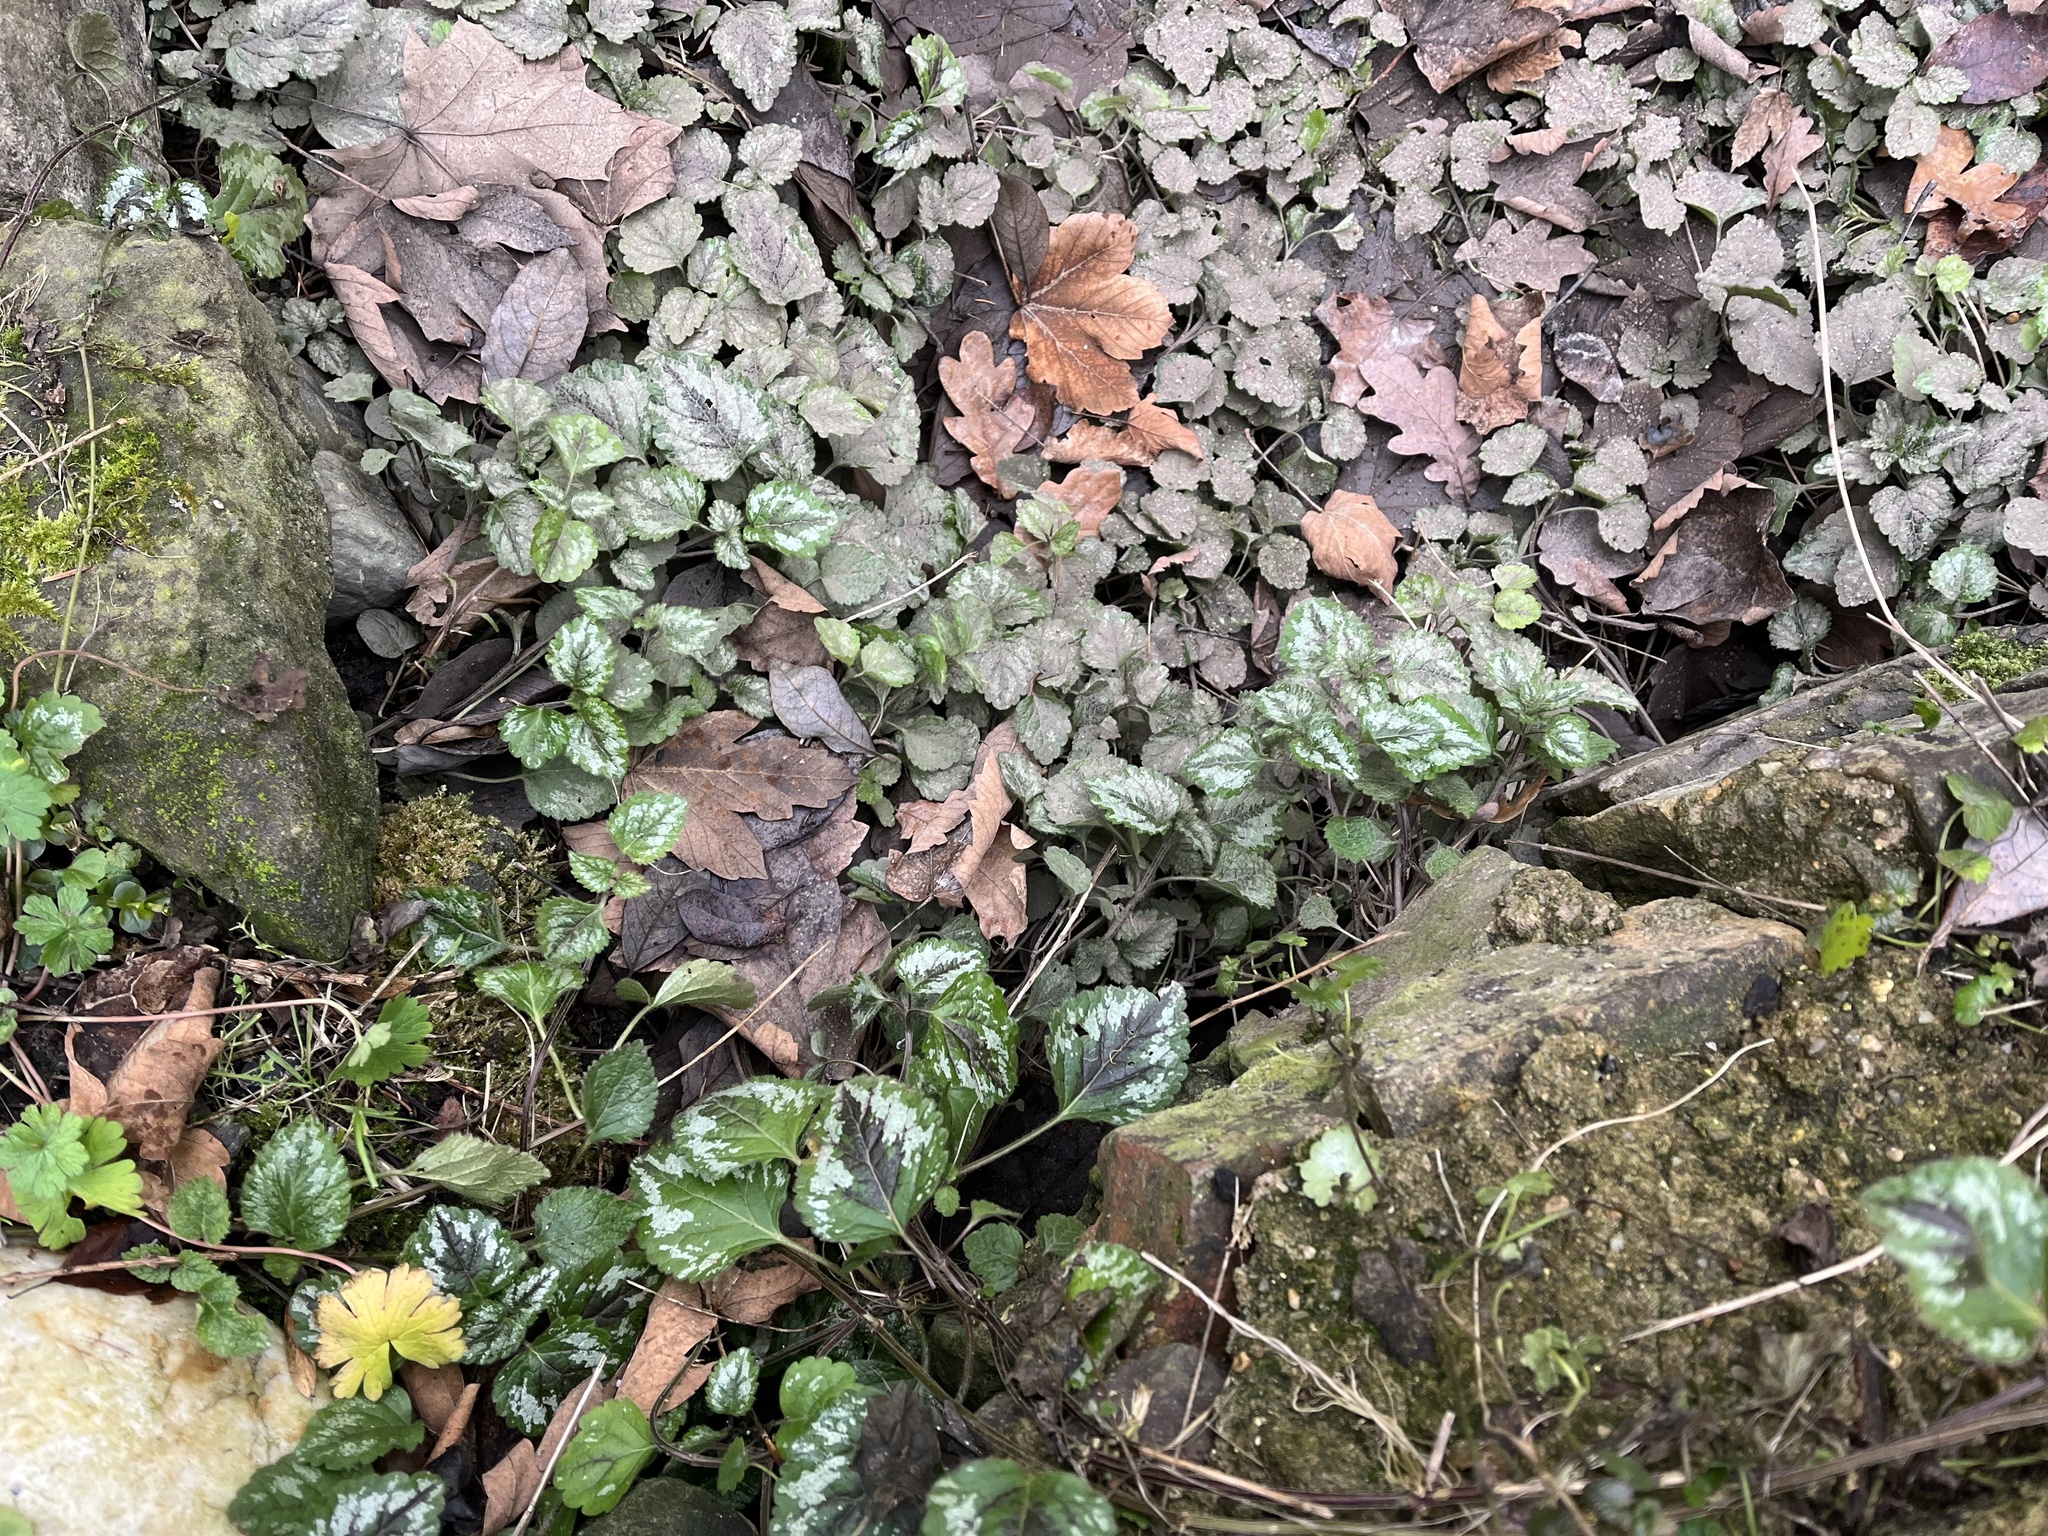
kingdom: Plantae
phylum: Tracheophyta
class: Magnoliopsida
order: Lamiales
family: Lamiaceae
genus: Lamium
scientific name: Lamium galeobdolon
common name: Yellow archangel
